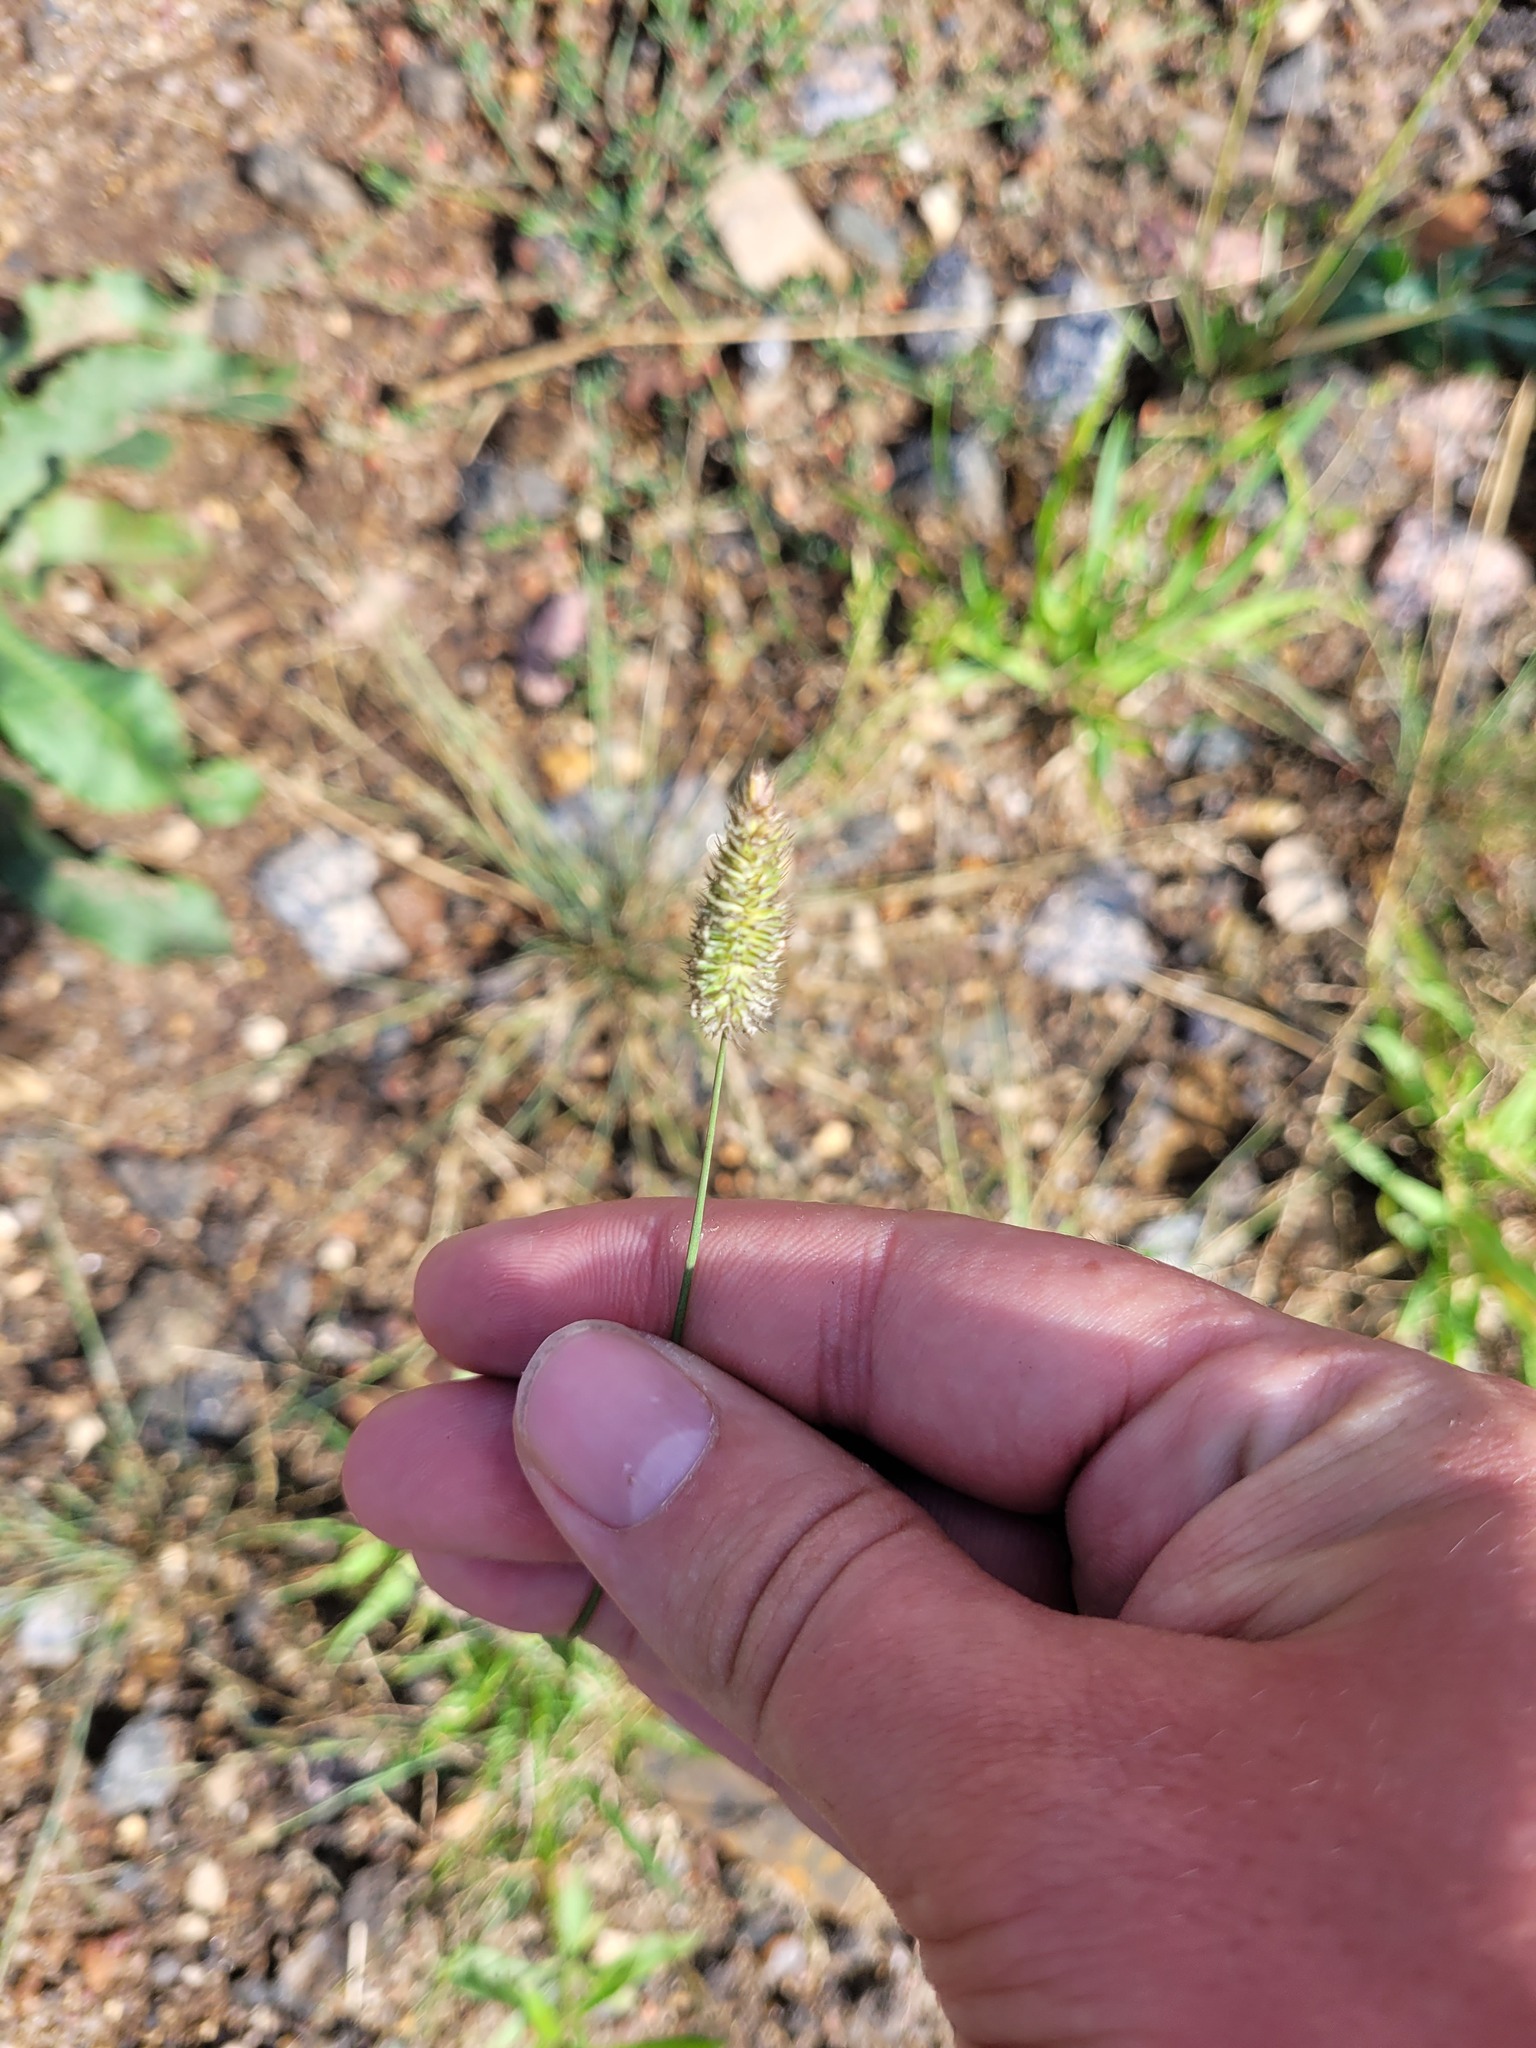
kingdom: Plantae
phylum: Tracheophyta
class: Liliopsida
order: Poales
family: Poaceae
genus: Phleum
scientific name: Phleum pratense
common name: Timothy grass
